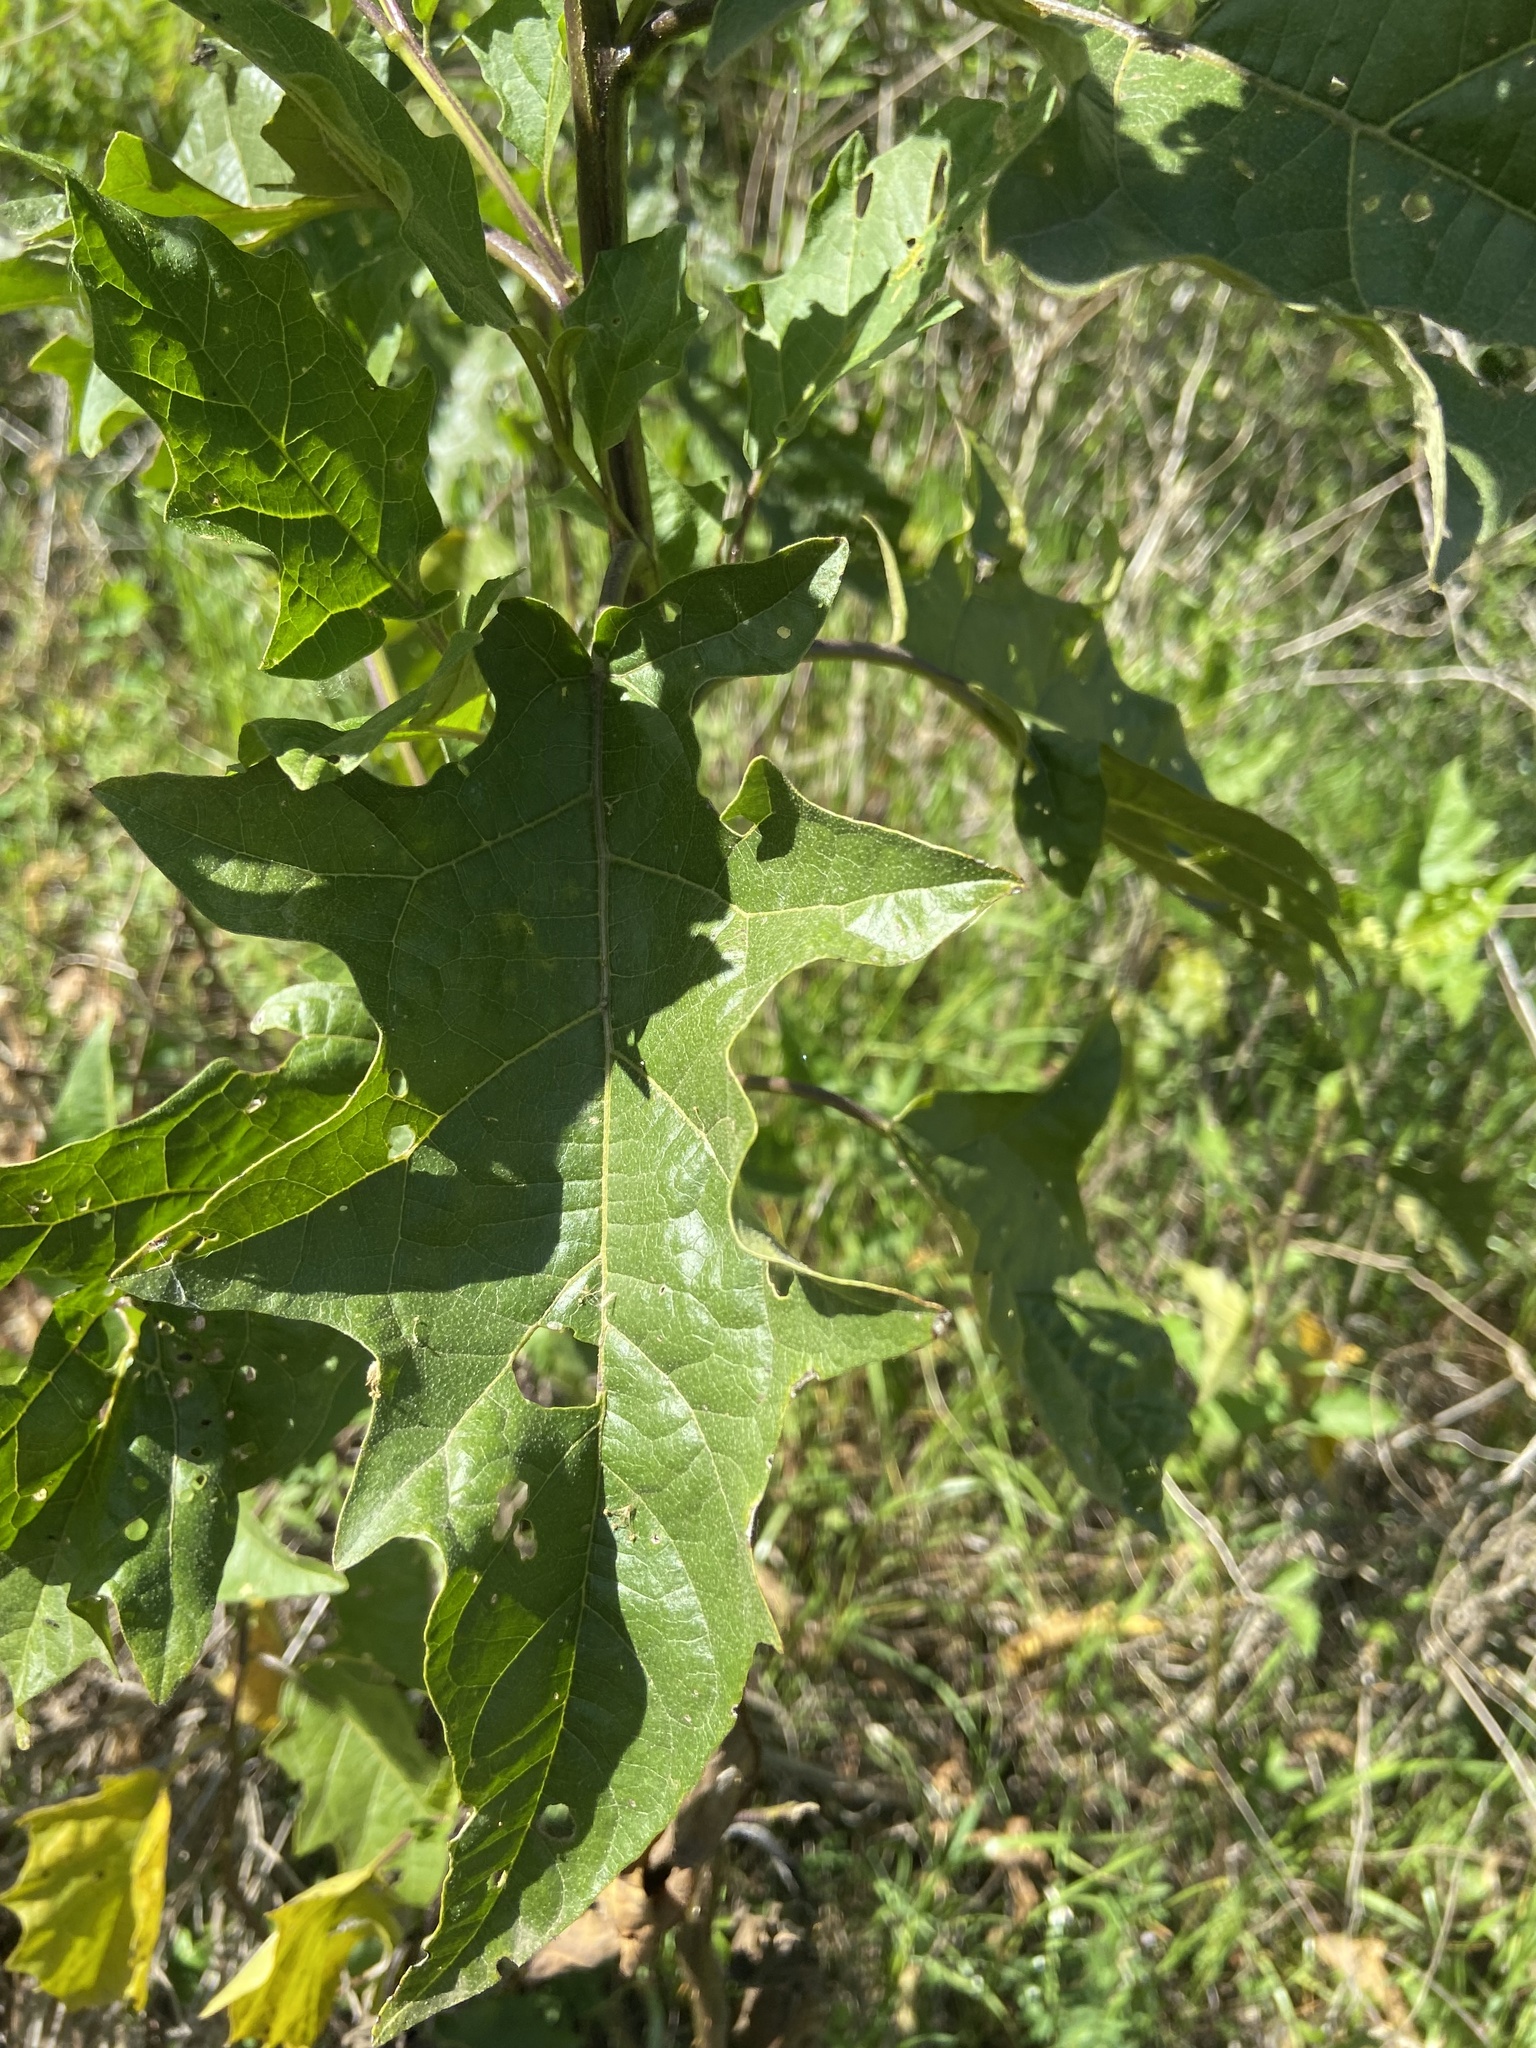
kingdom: Plantae
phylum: Tracheophyta
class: Magnoliopsida
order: Solanales
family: Solanaceae
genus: Solanum
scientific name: Solanum bonariense
